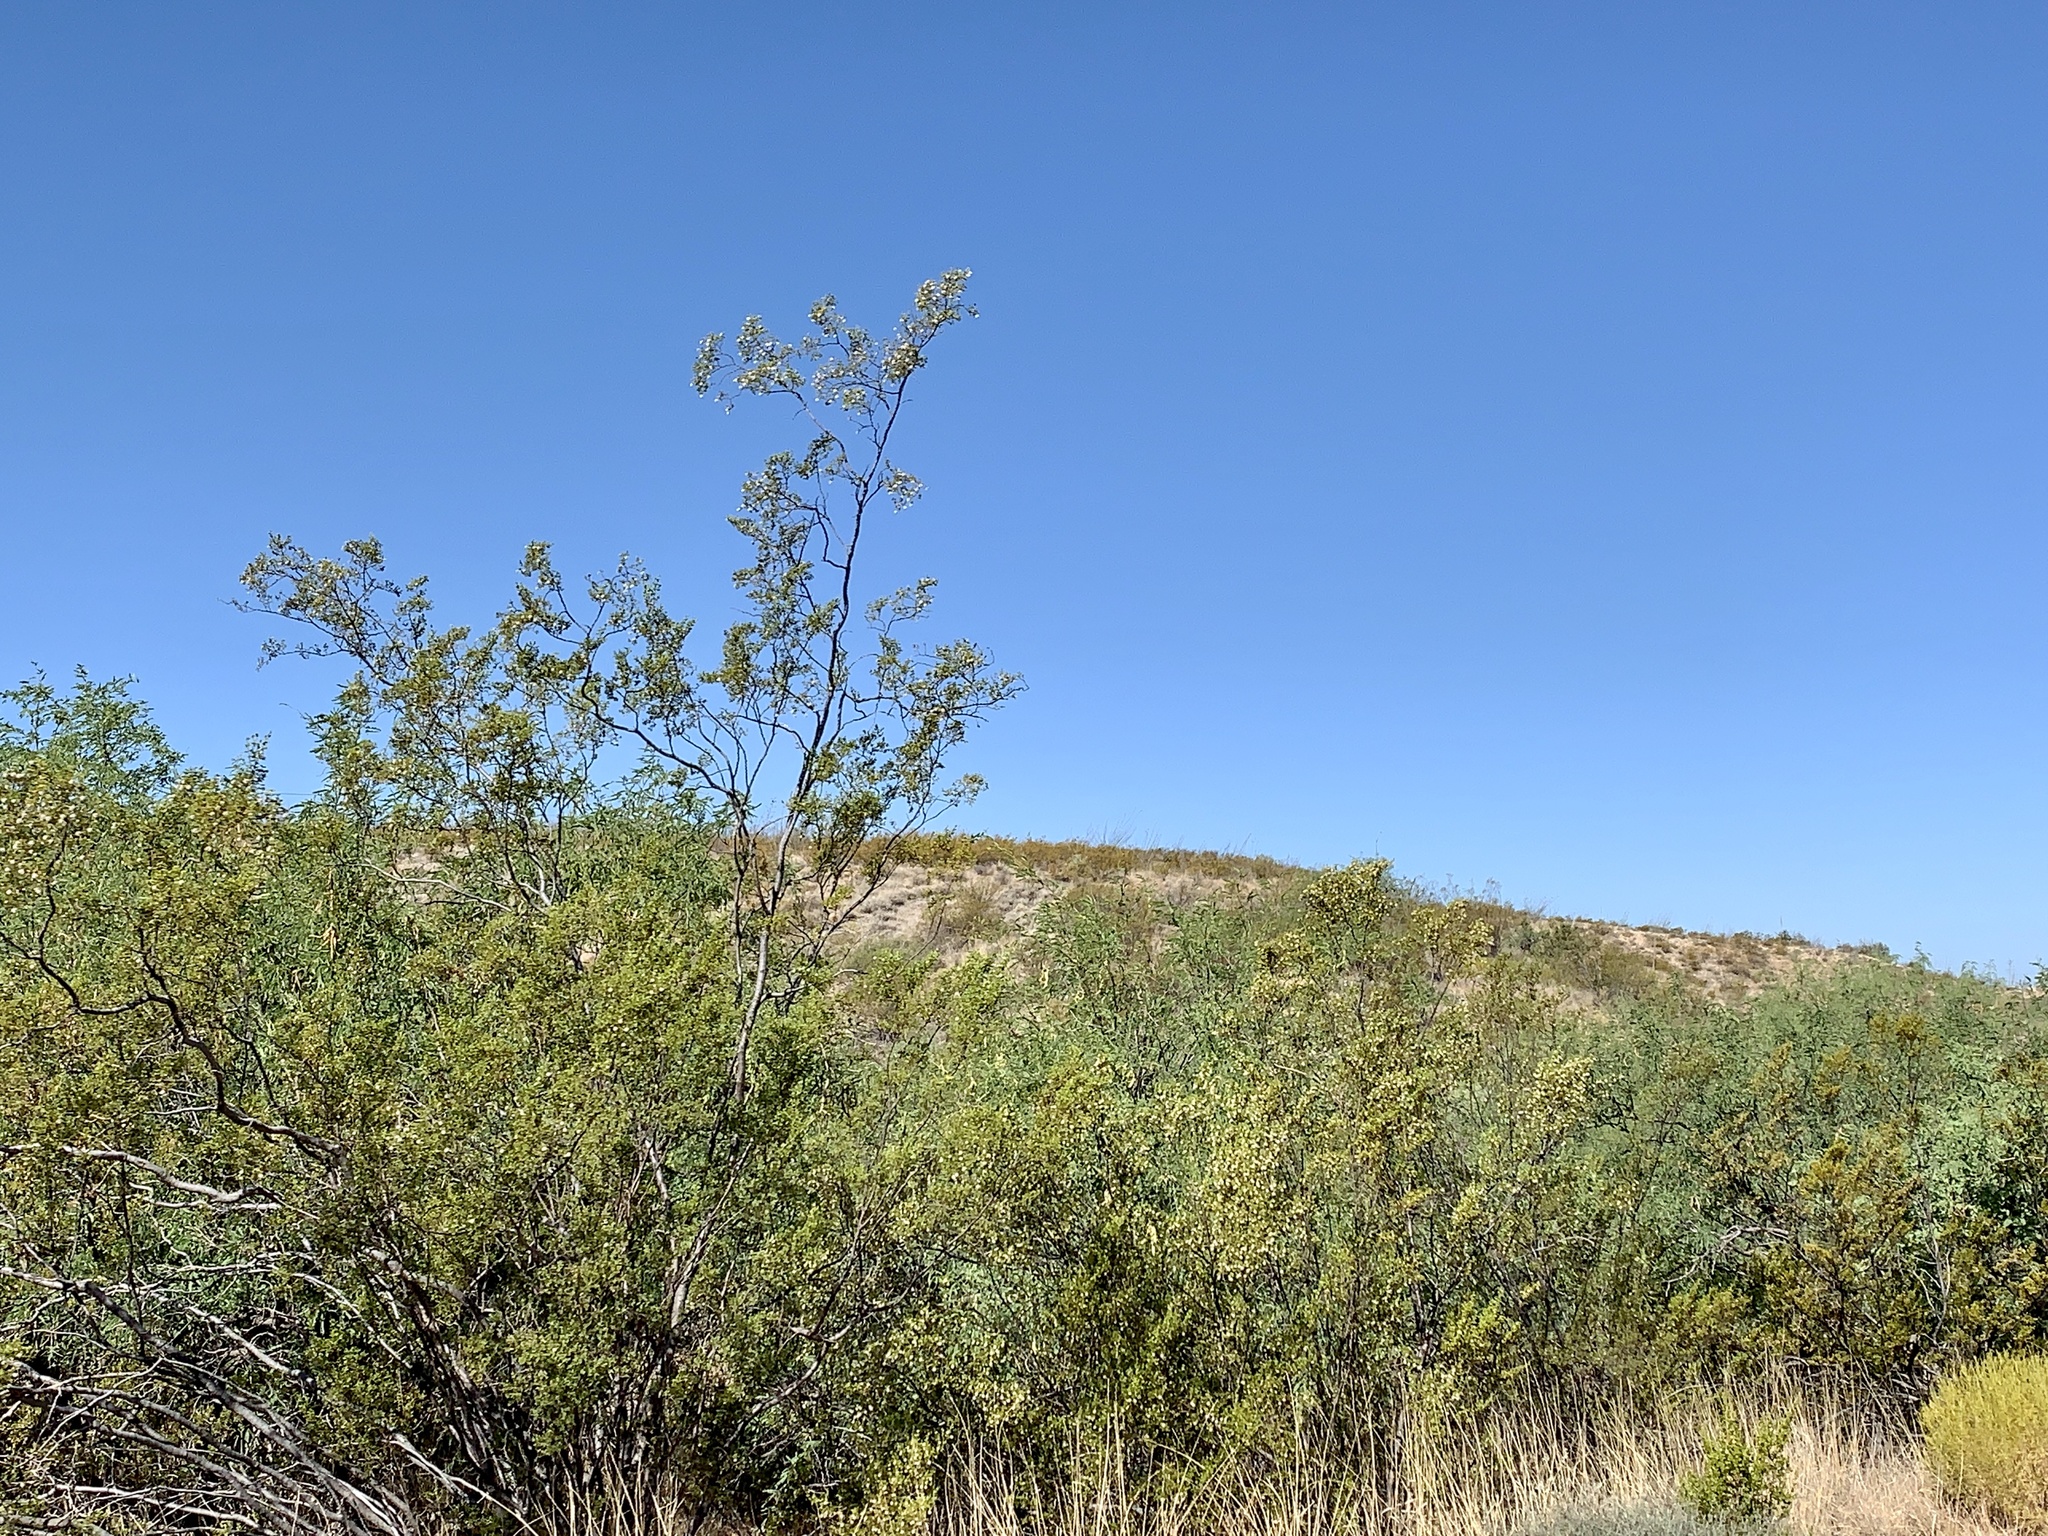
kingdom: Plantae
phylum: Tracheophyta
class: Magnoliopsida
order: Zygophyllales
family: Zygophyllaceae
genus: Larrea
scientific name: Larrea tridentata
